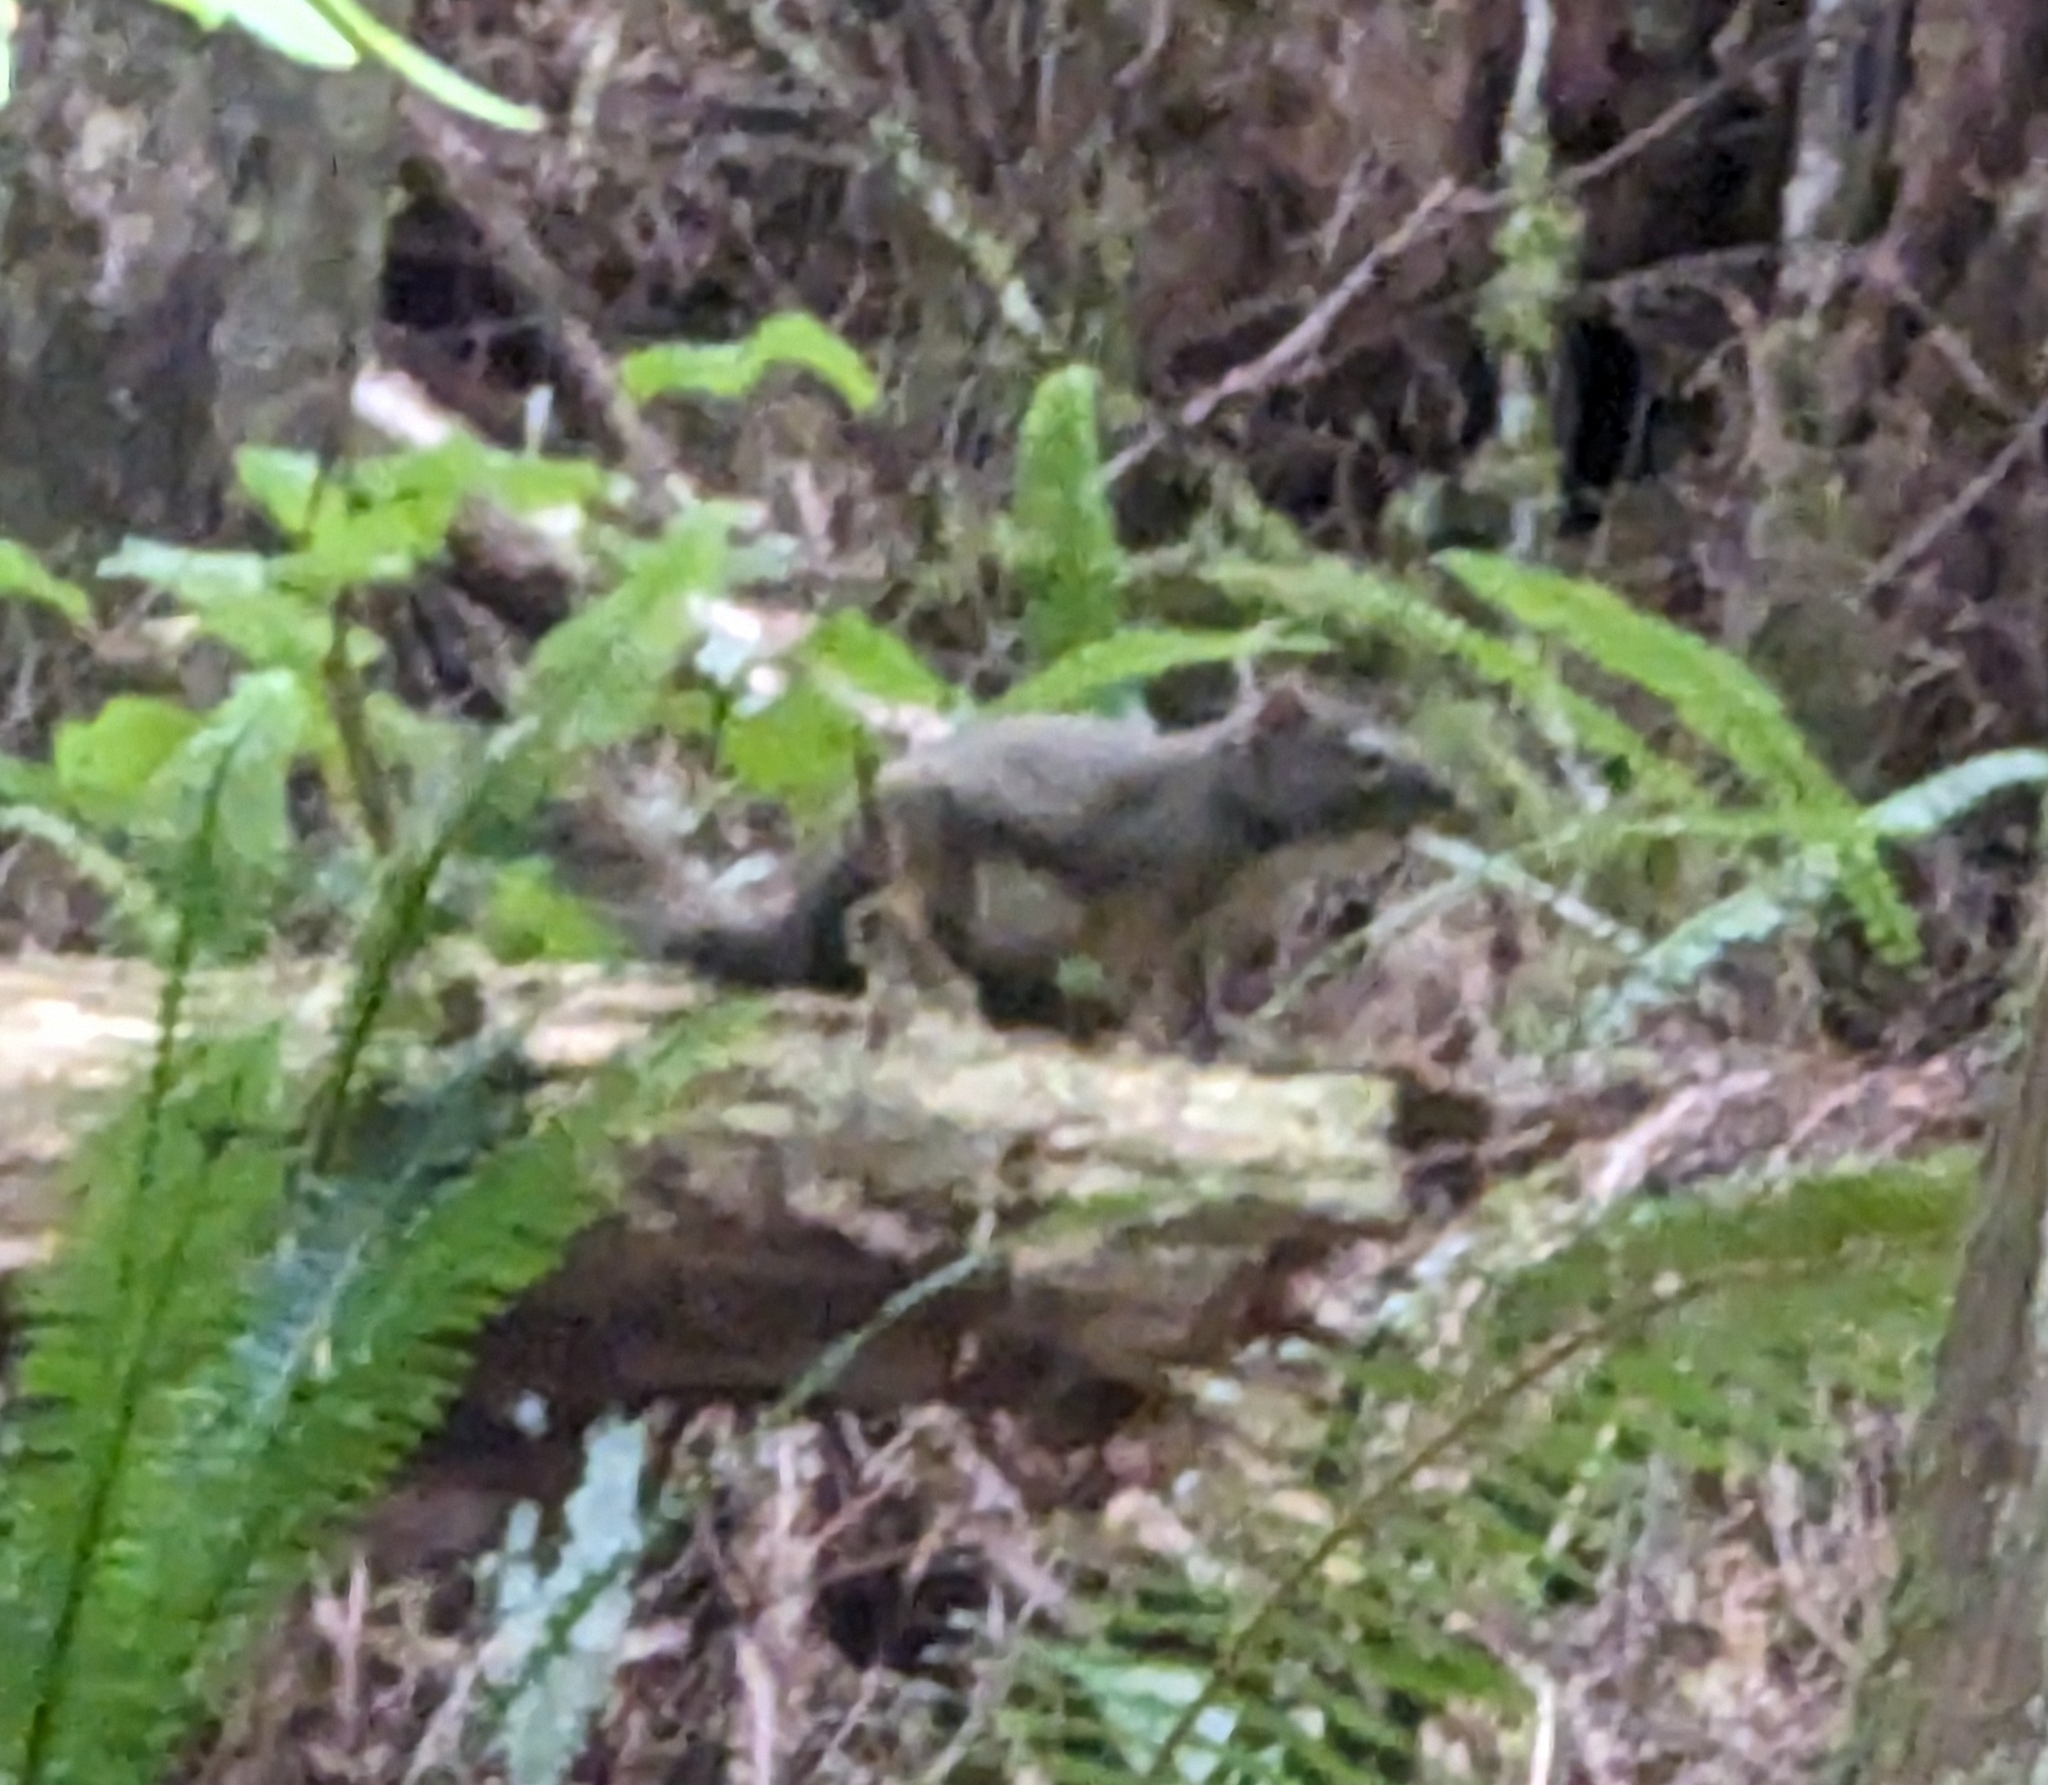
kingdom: Animalia
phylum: Chordata
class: Mammalia
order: Rodentia
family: Sciuridae
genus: Tamiasciurus
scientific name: Tamiasciurus hudsonicus
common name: Red squirrel
